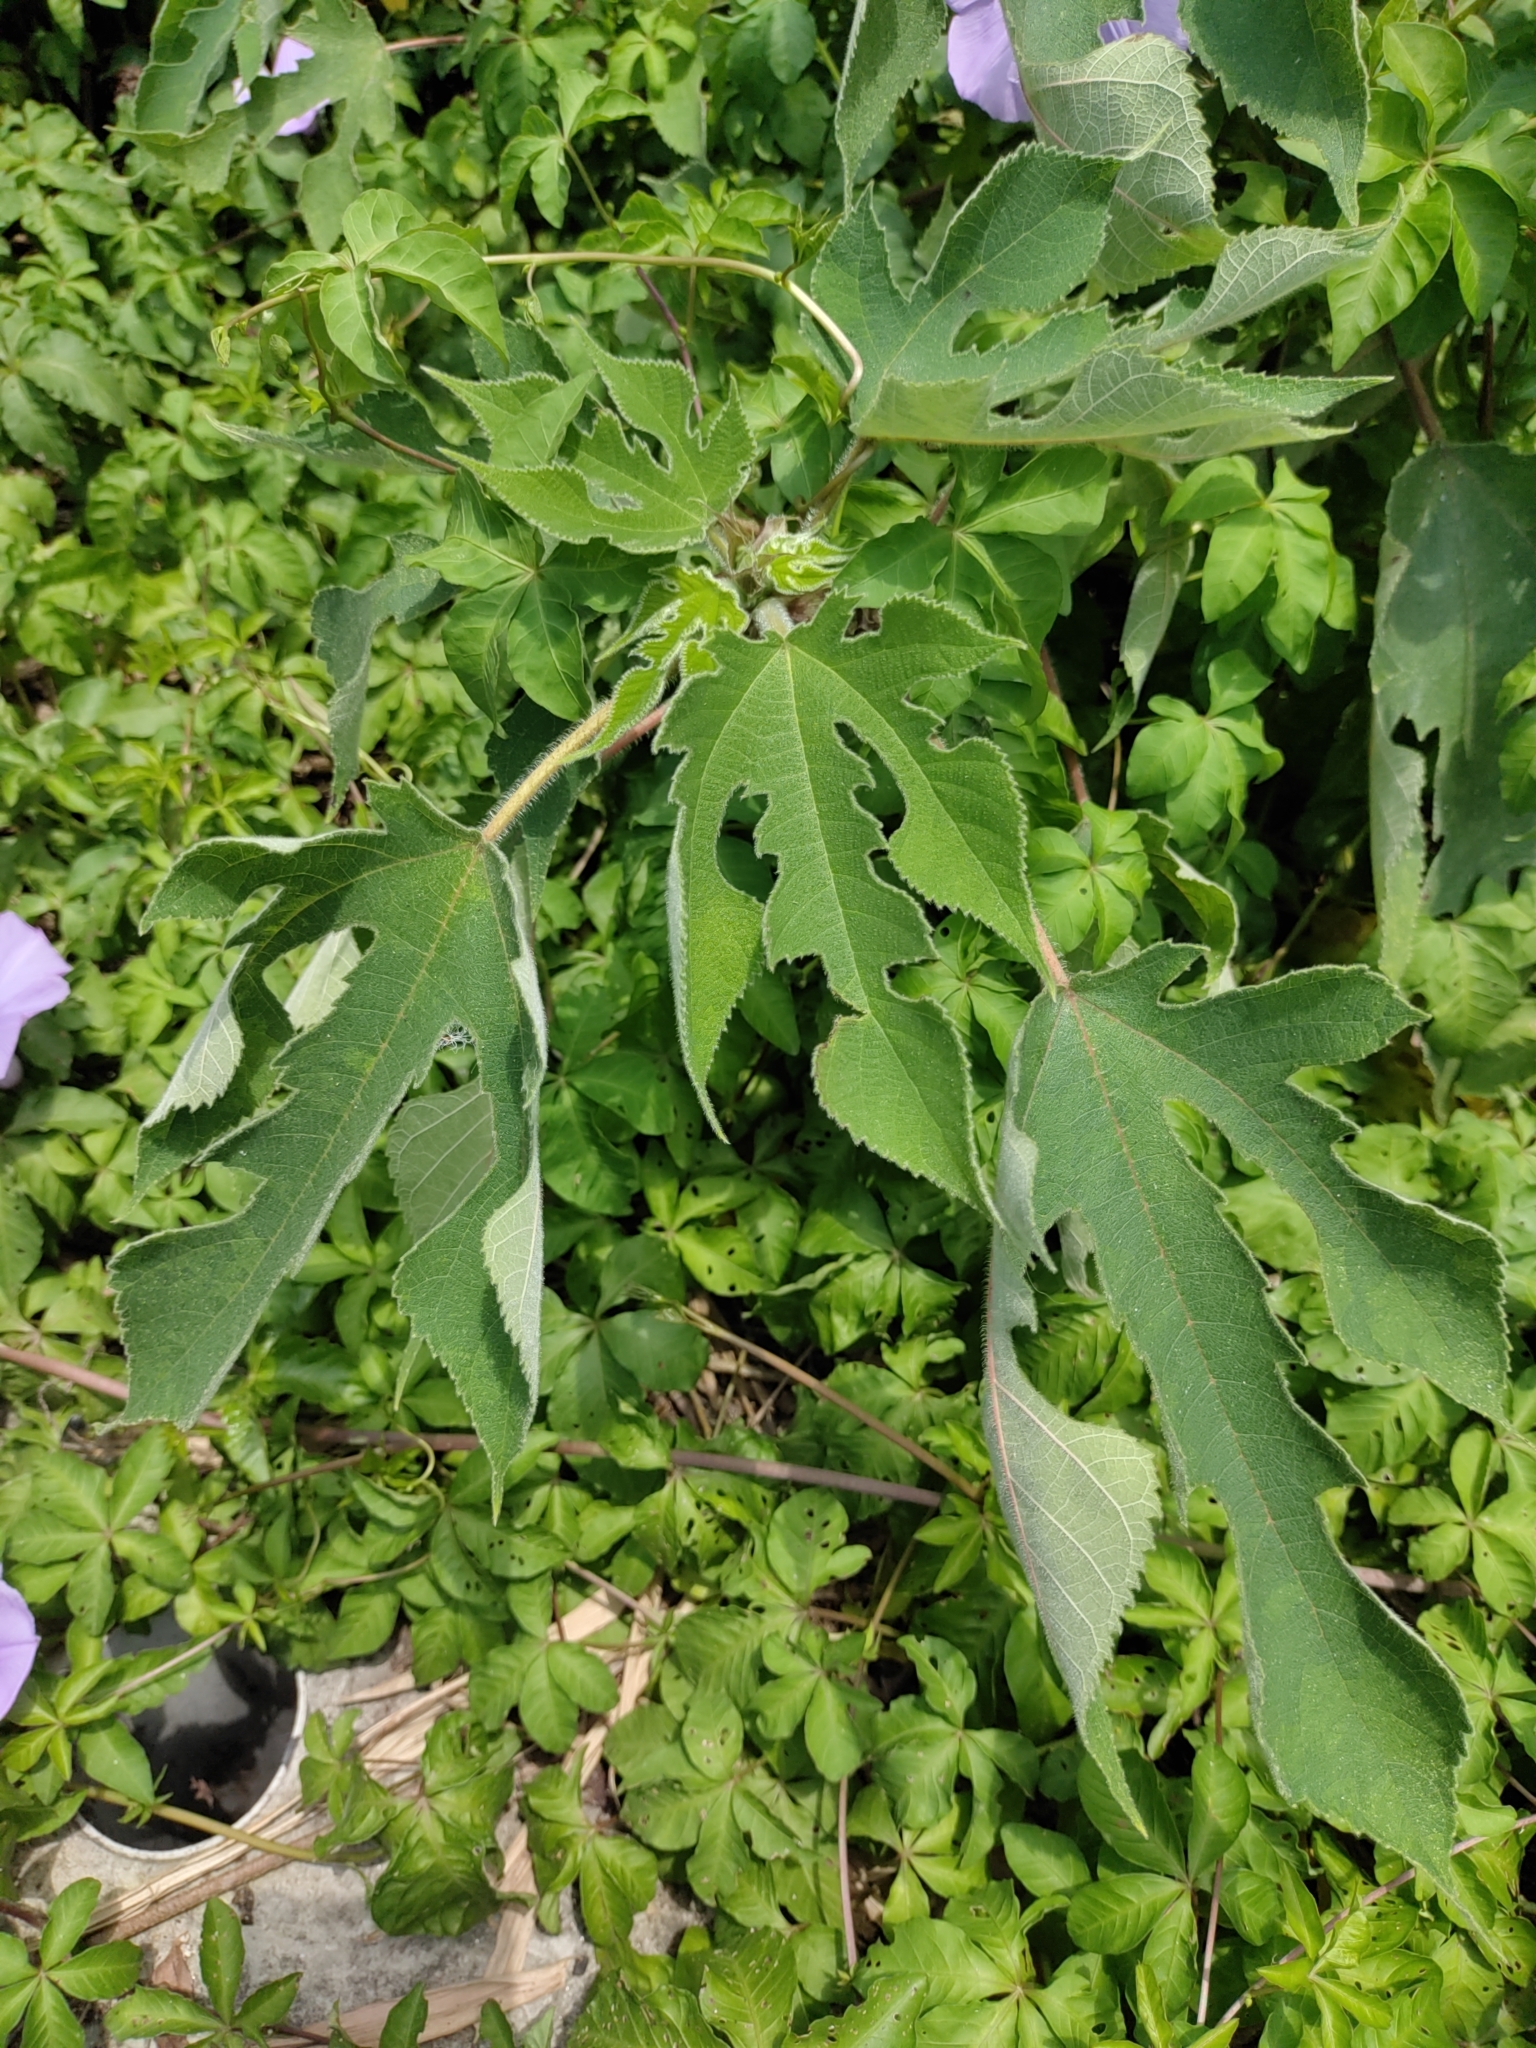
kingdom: Plantae
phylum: Tracheophyta
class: Magnoliopsida
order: Rosales
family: Moraceae
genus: Broussonetia
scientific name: Broussonetia papyrifera
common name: Paper mulberry
